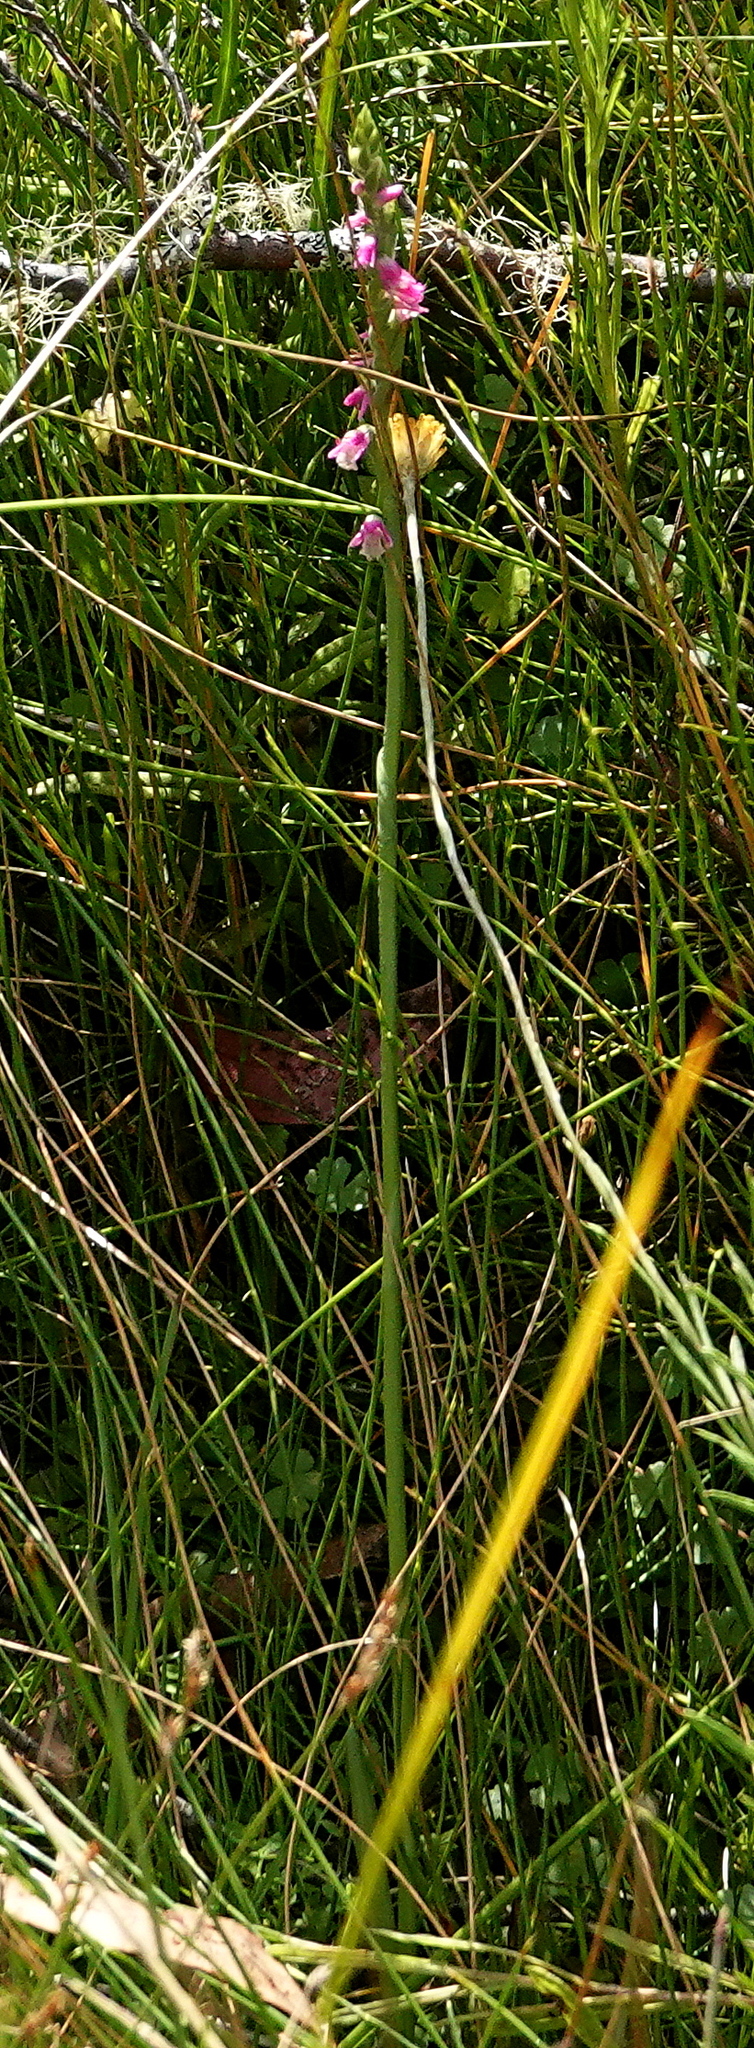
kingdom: Plantae
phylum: Tracheophyta
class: Liliopsida
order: Asparagales
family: Orchidaceae
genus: Spiranthes
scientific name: Spiranthes australis
